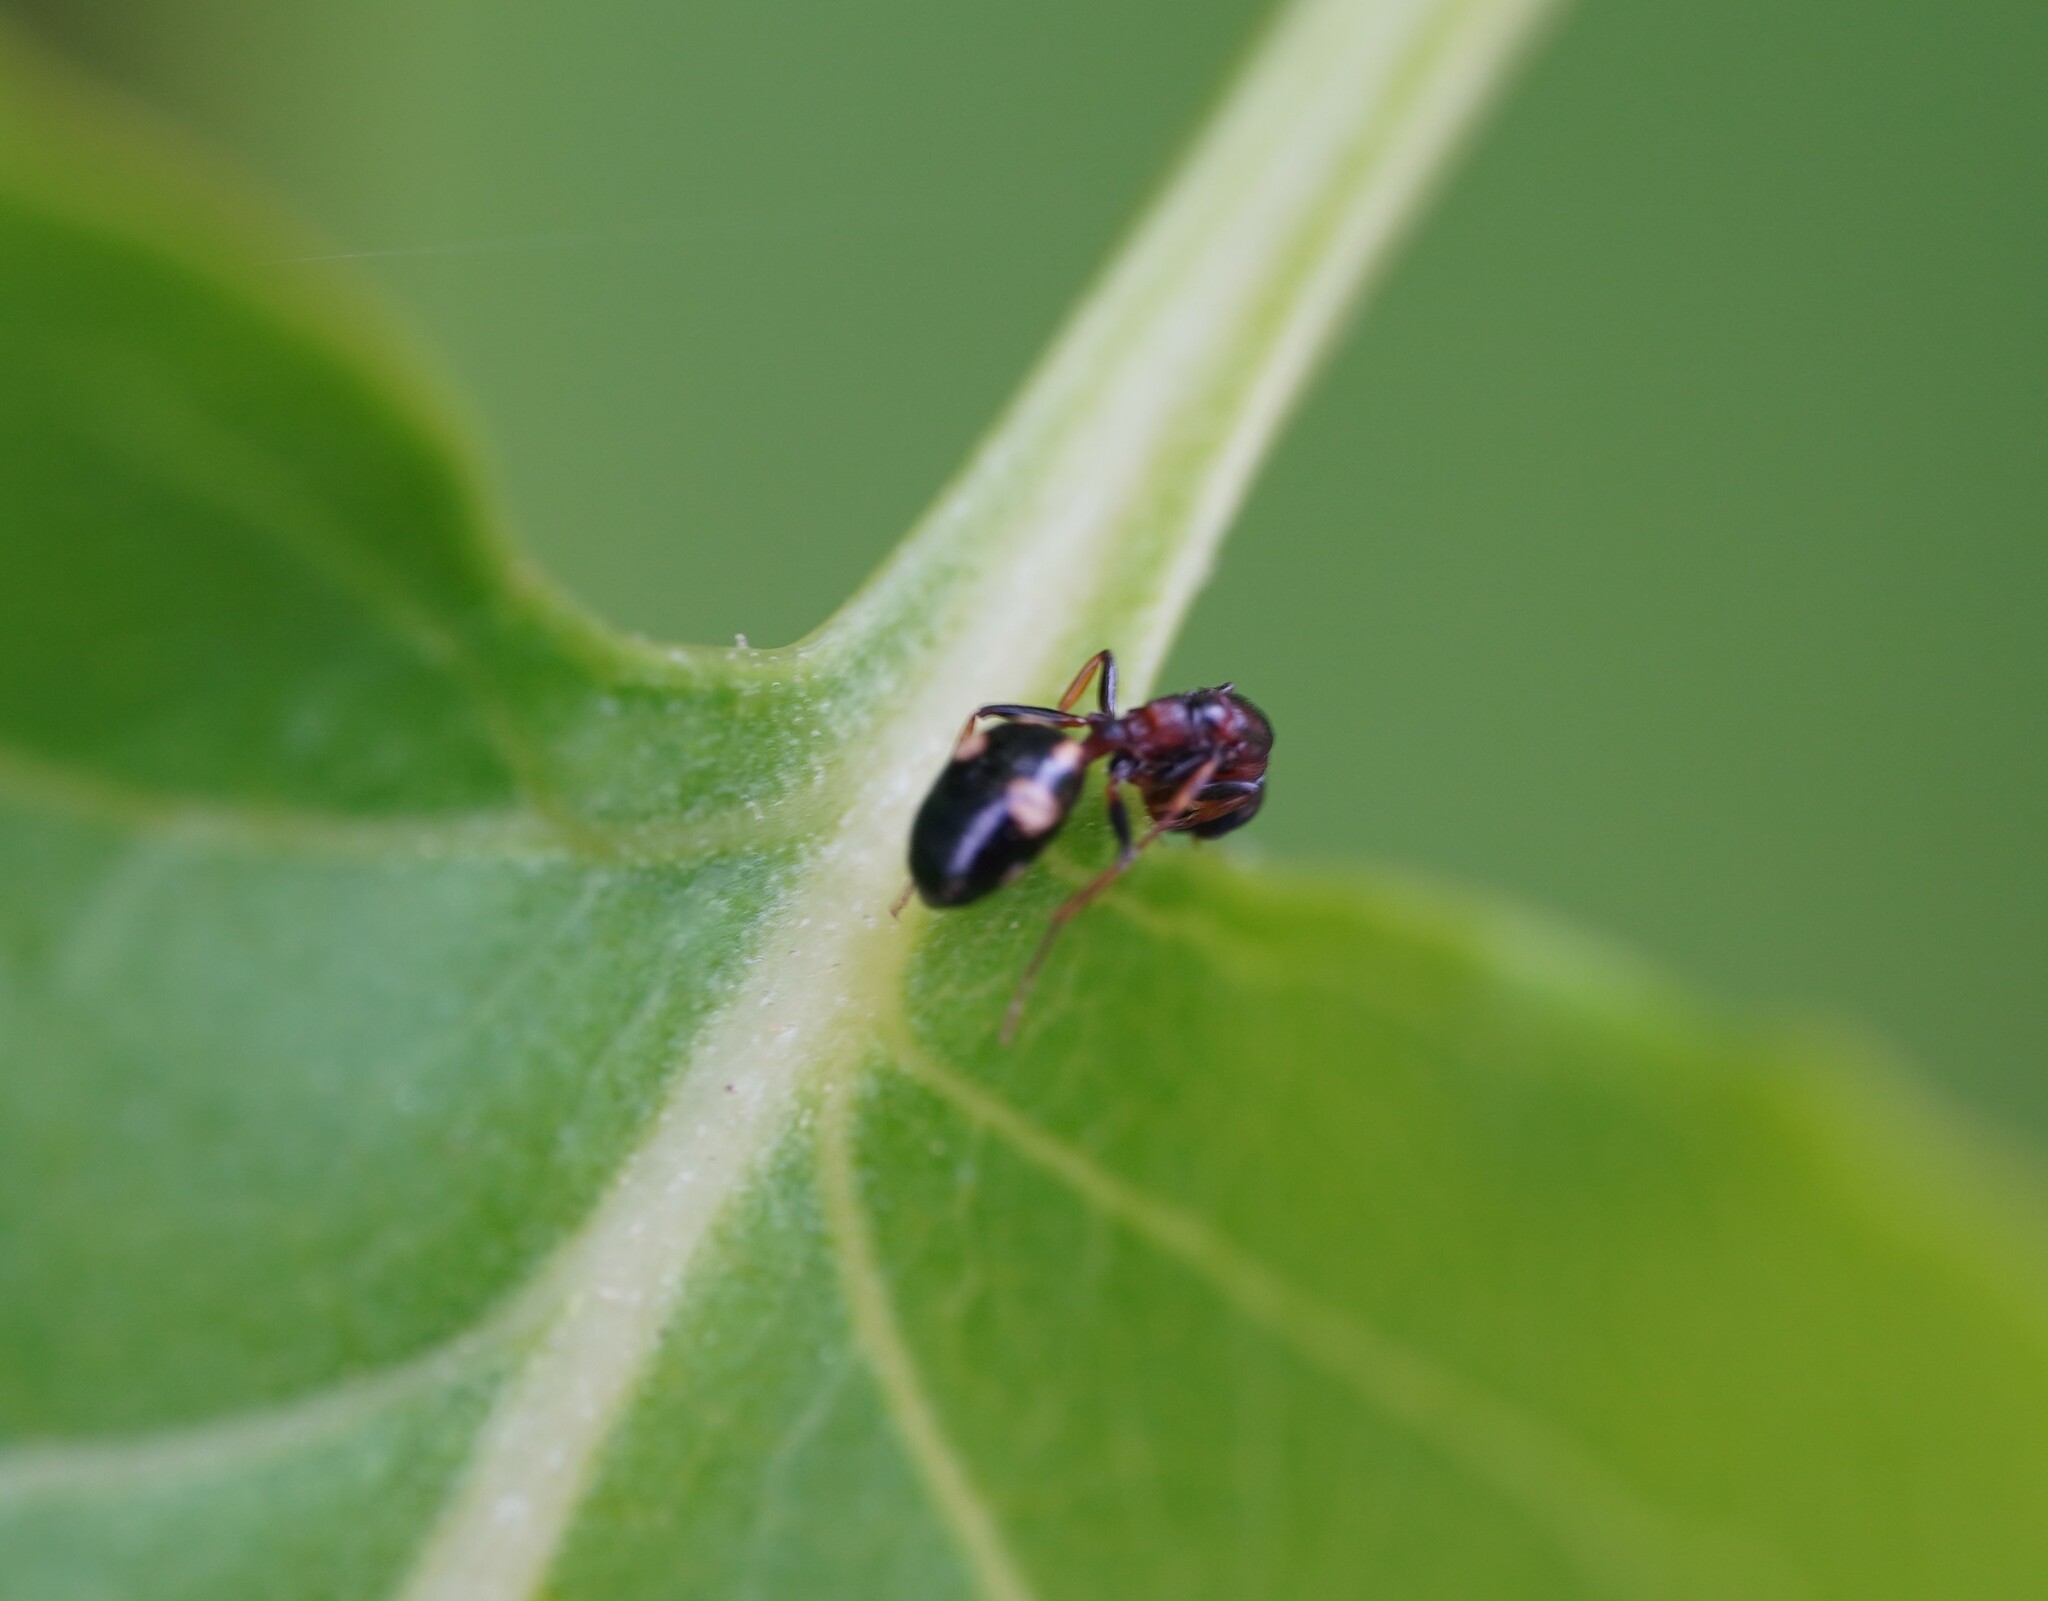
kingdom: Animalia
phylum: Arthropoda
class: Insecta
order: Hymenoptera
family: Formicidae
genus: Dolichoderus
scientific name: Dolichoderus quadripunctatus
